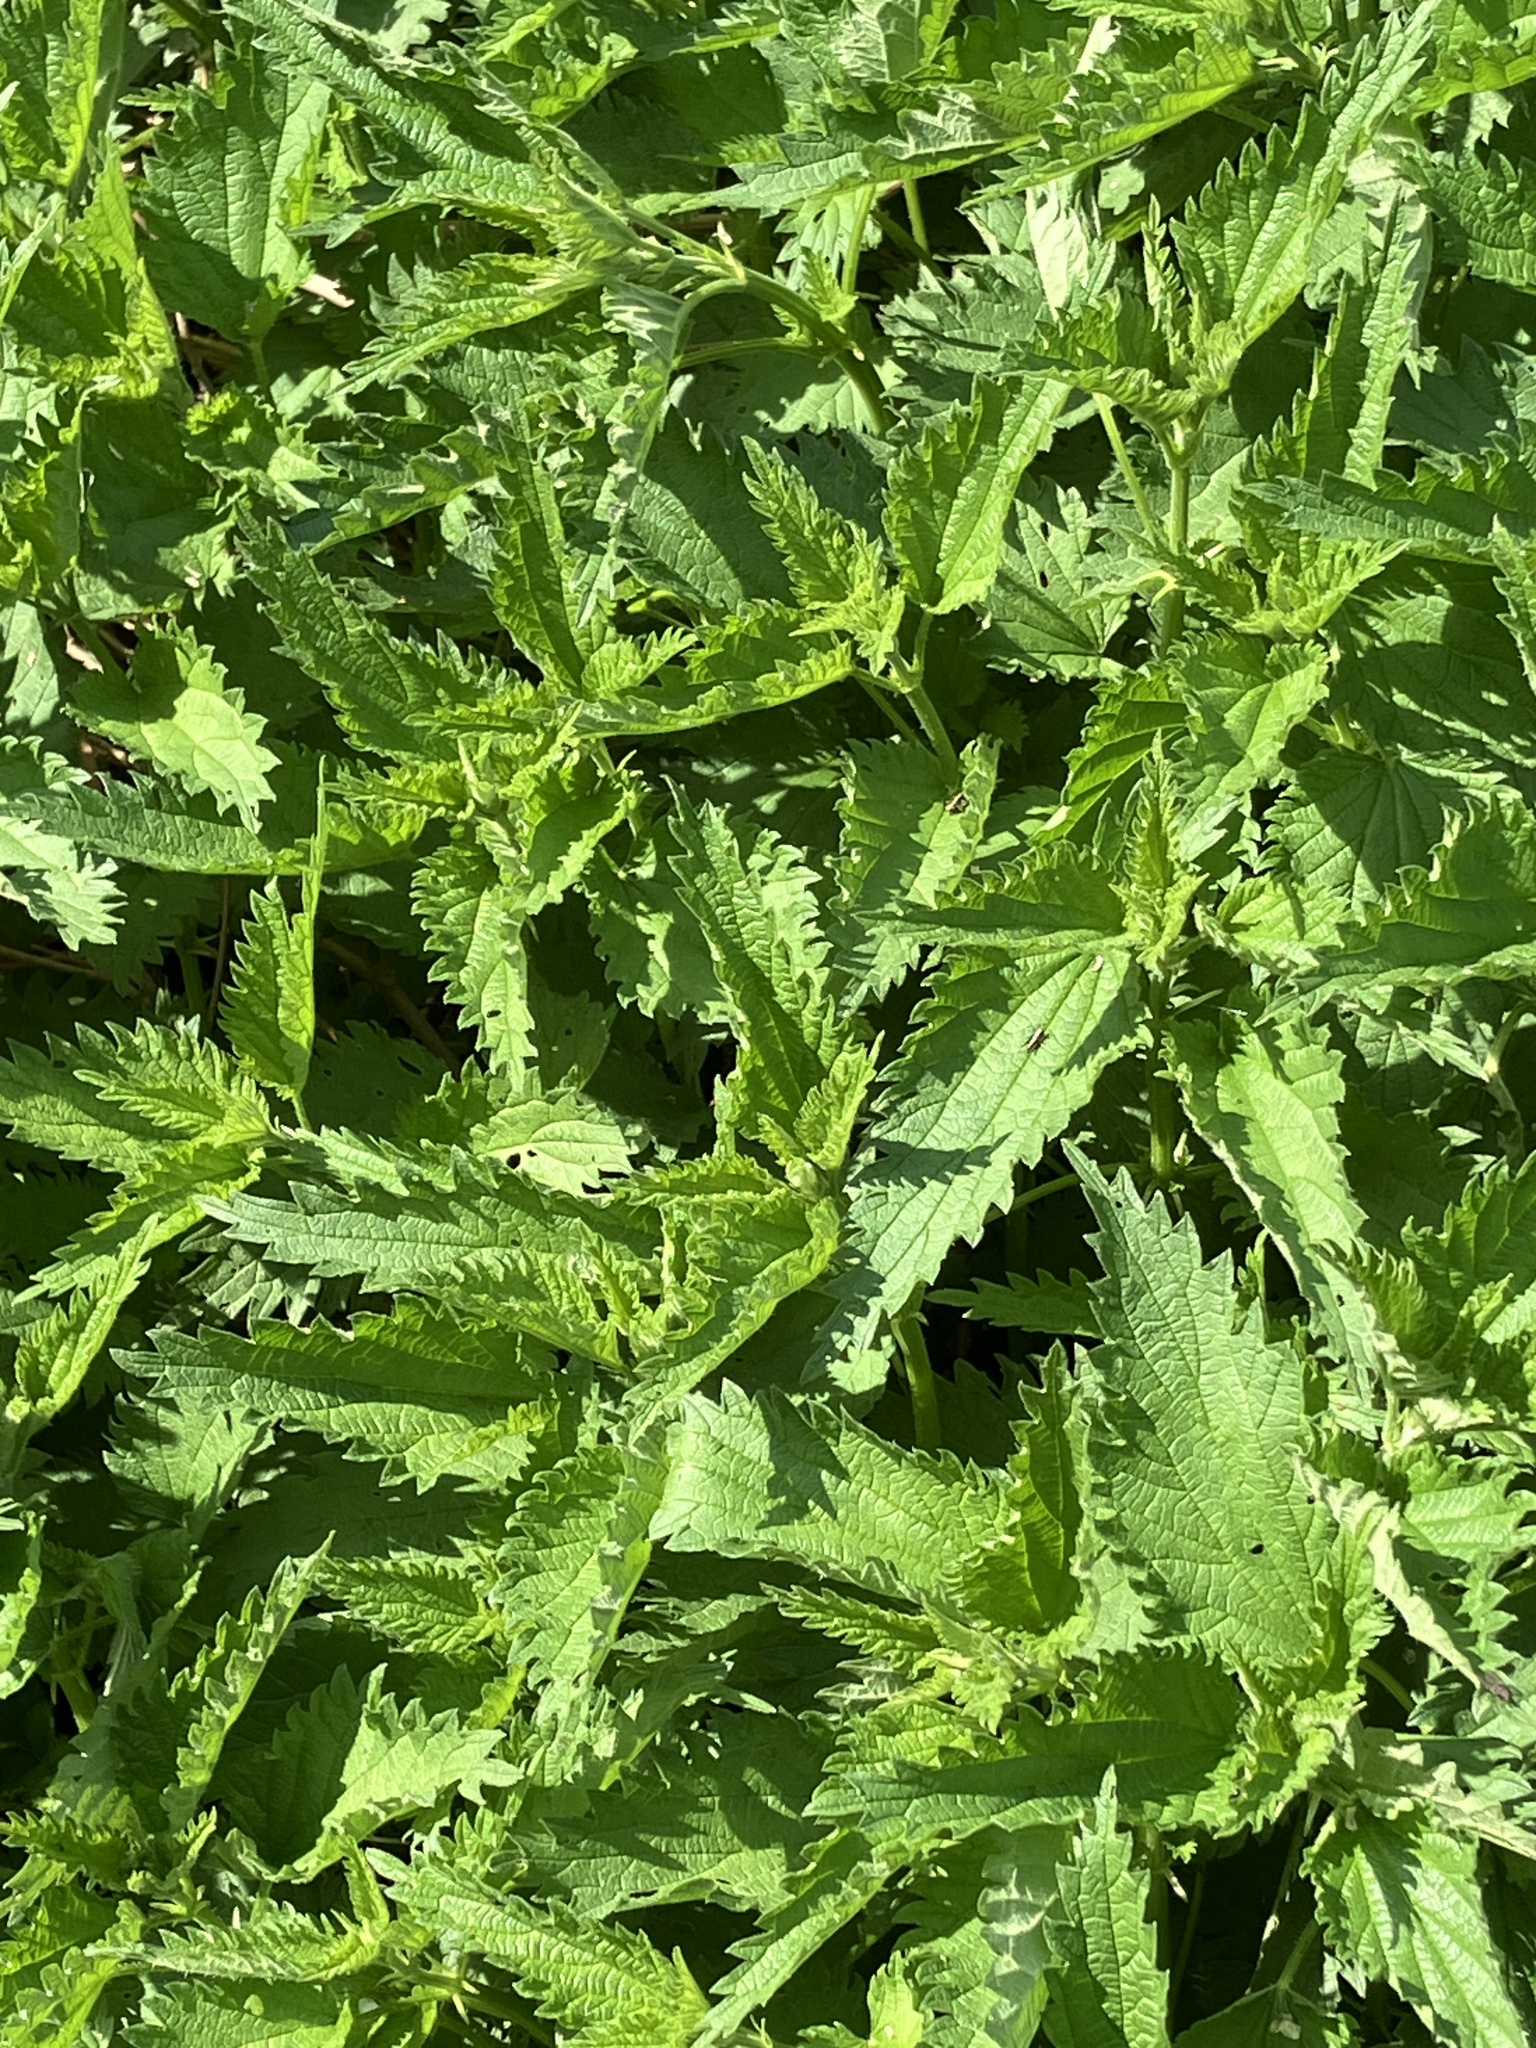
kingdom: Plantae
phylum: Tracheophyta
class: Magnoliopsida
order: Rosales
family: Urticaceae
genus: Urtica
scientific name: Urtica dioica
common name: Common nettle
